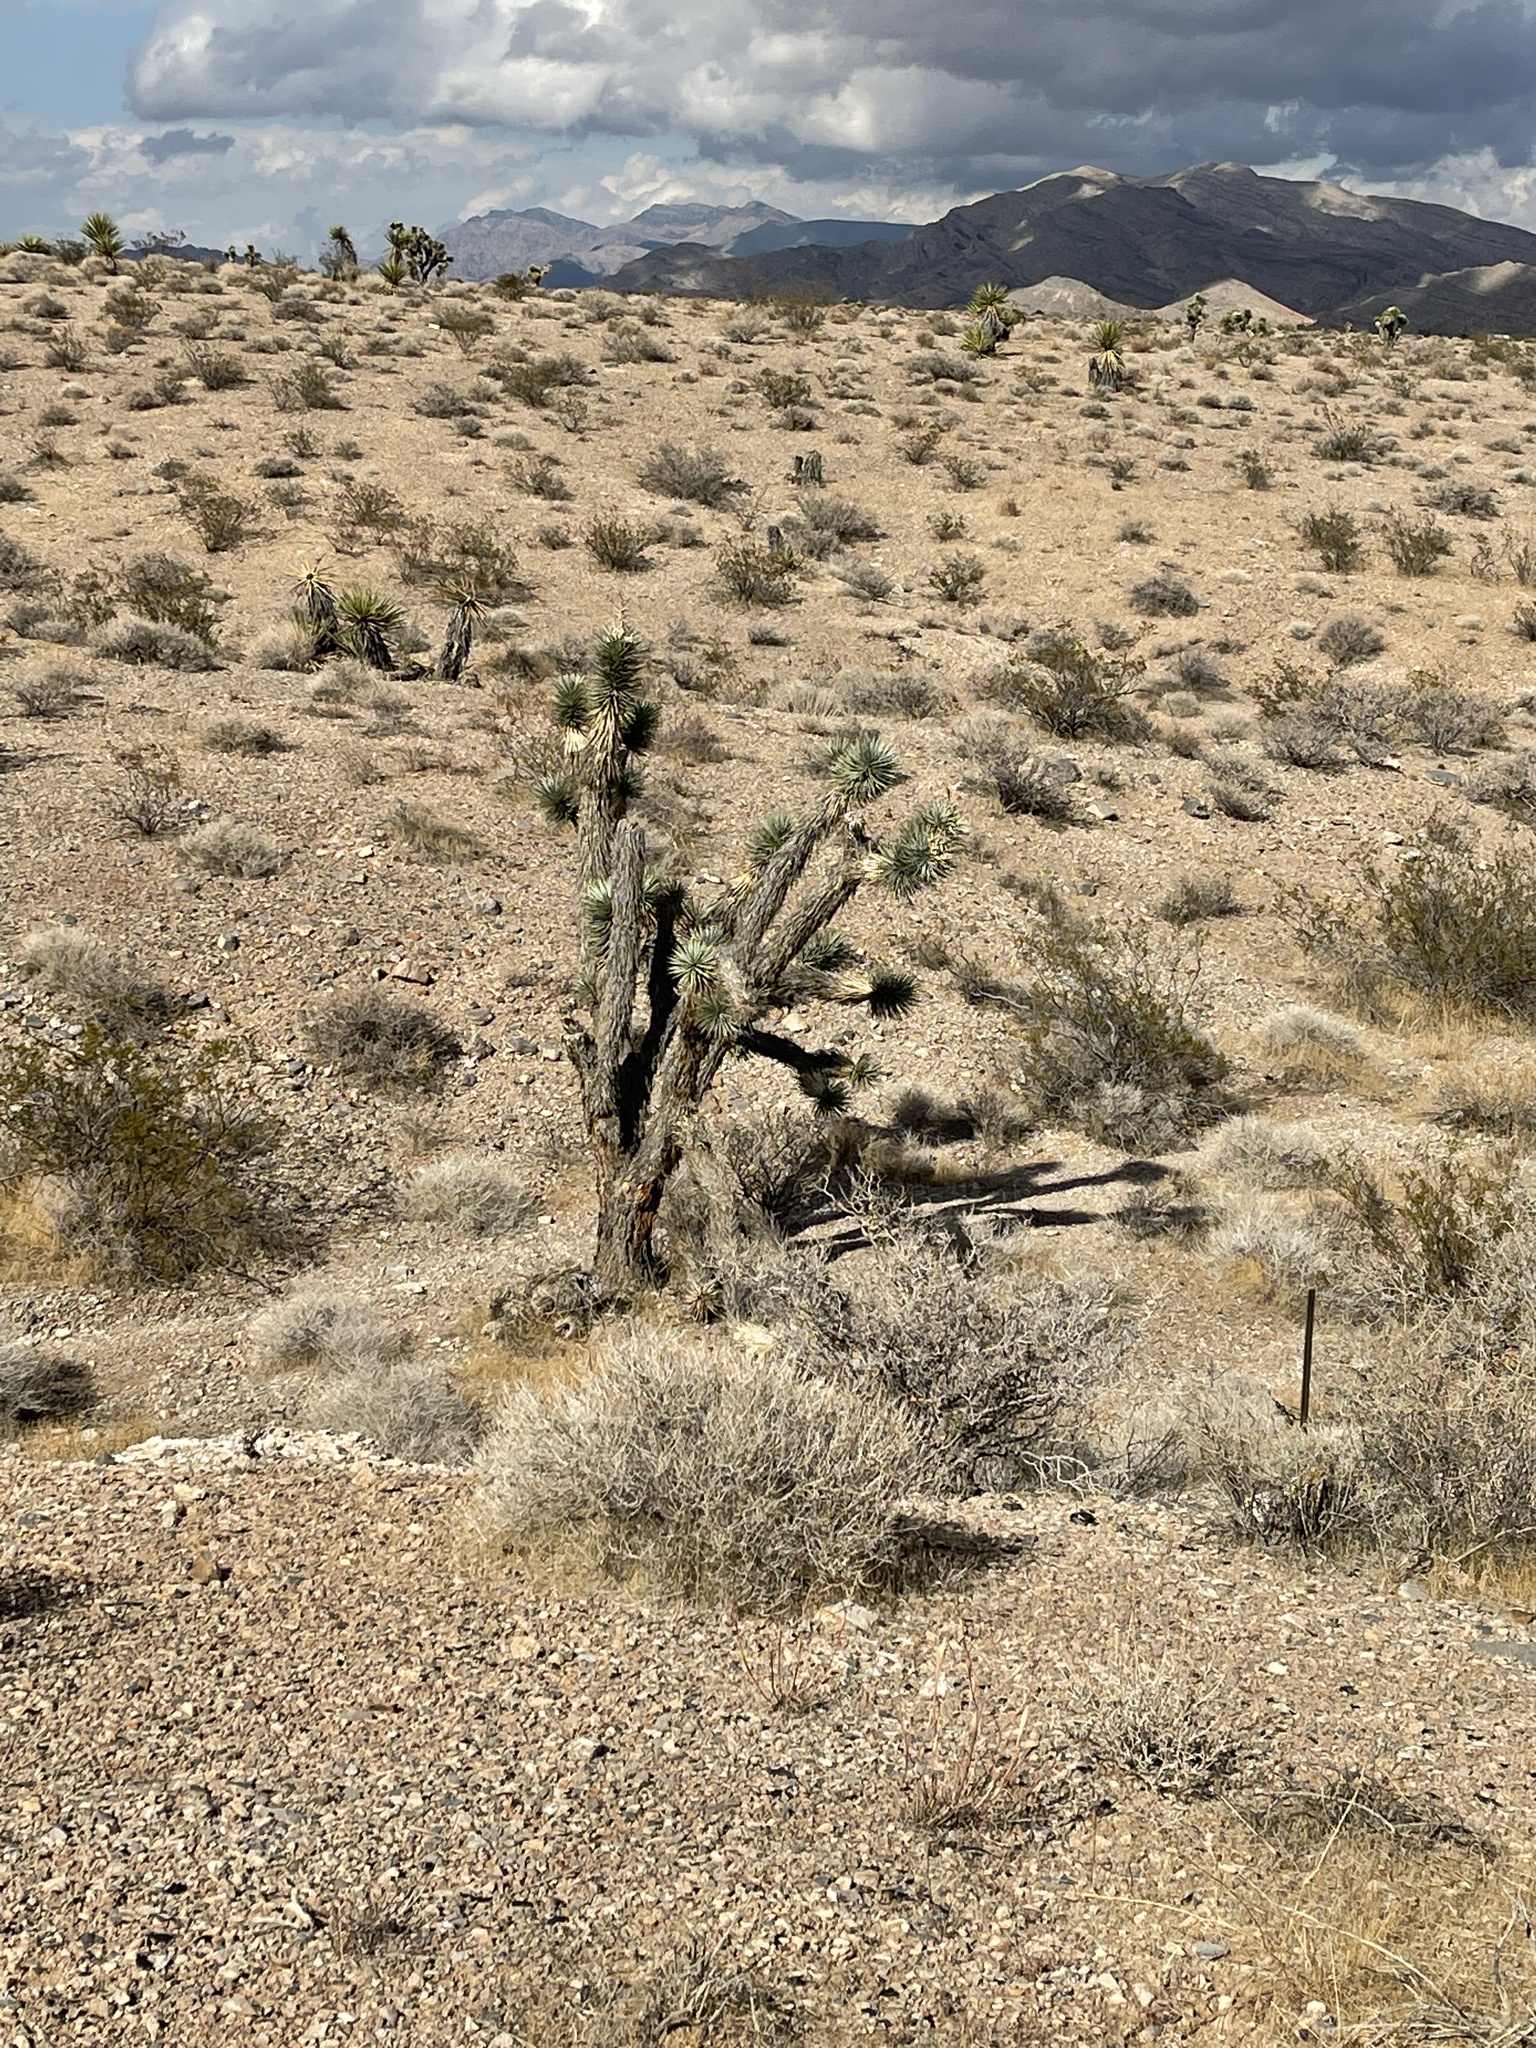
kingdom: Plantae
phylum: Tracheophyta
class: Liliopsida
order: Asparagales
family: Asparagaceae
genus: Yucca
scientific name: Yucca brevifolia
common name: Joshua tree
